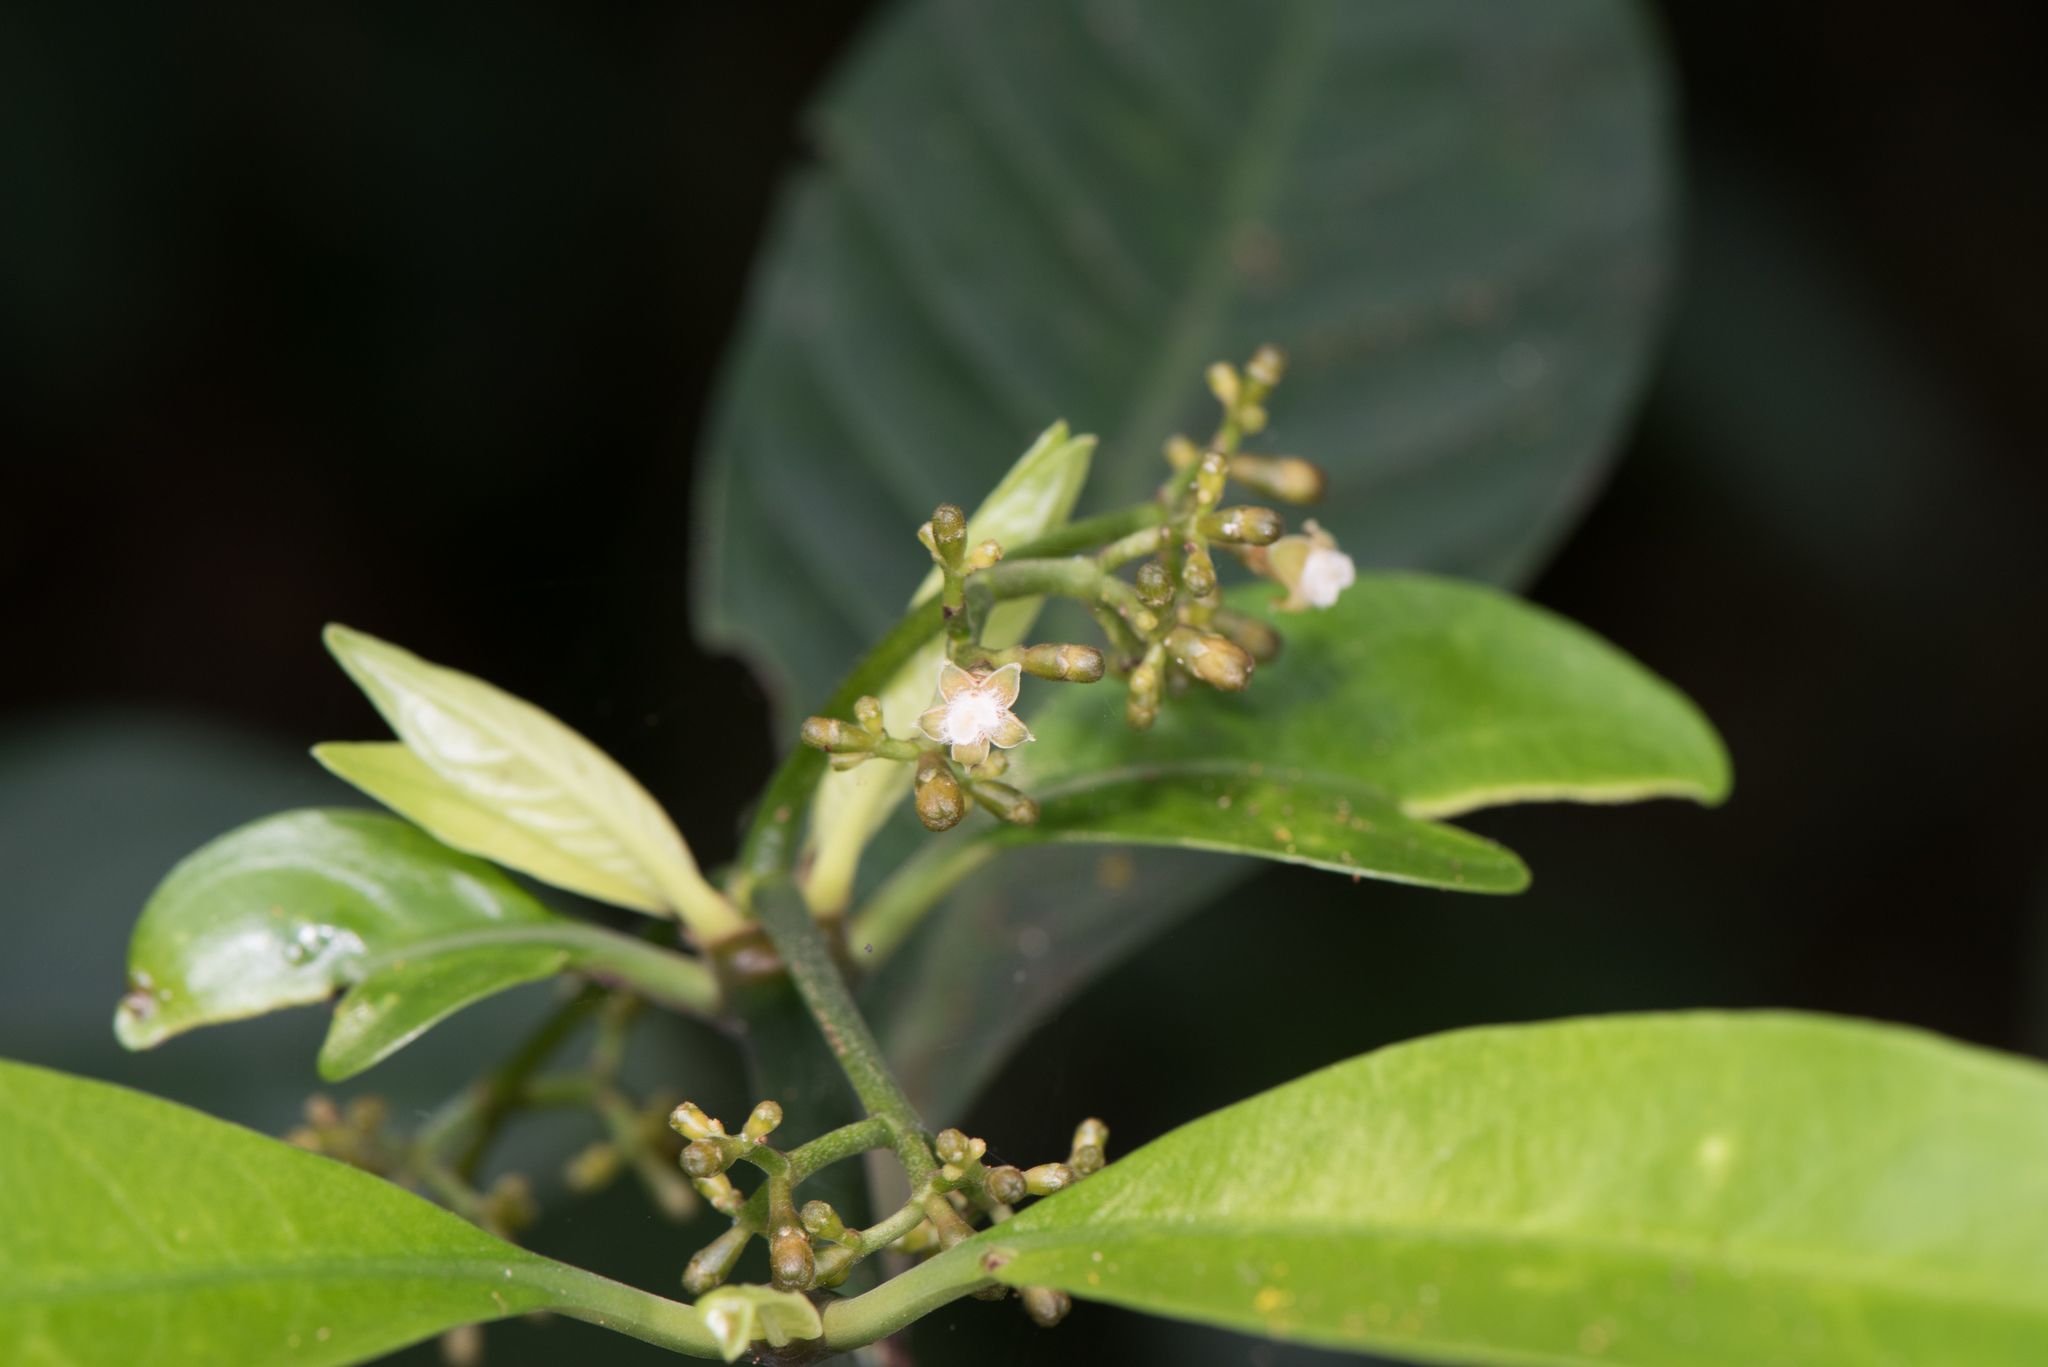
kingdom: Plantae
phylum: Tracheophyta
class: Magnoliopsida
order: Gentianales
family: Rubiaceae
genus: Psychotria
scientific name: Psychotria asiatica
